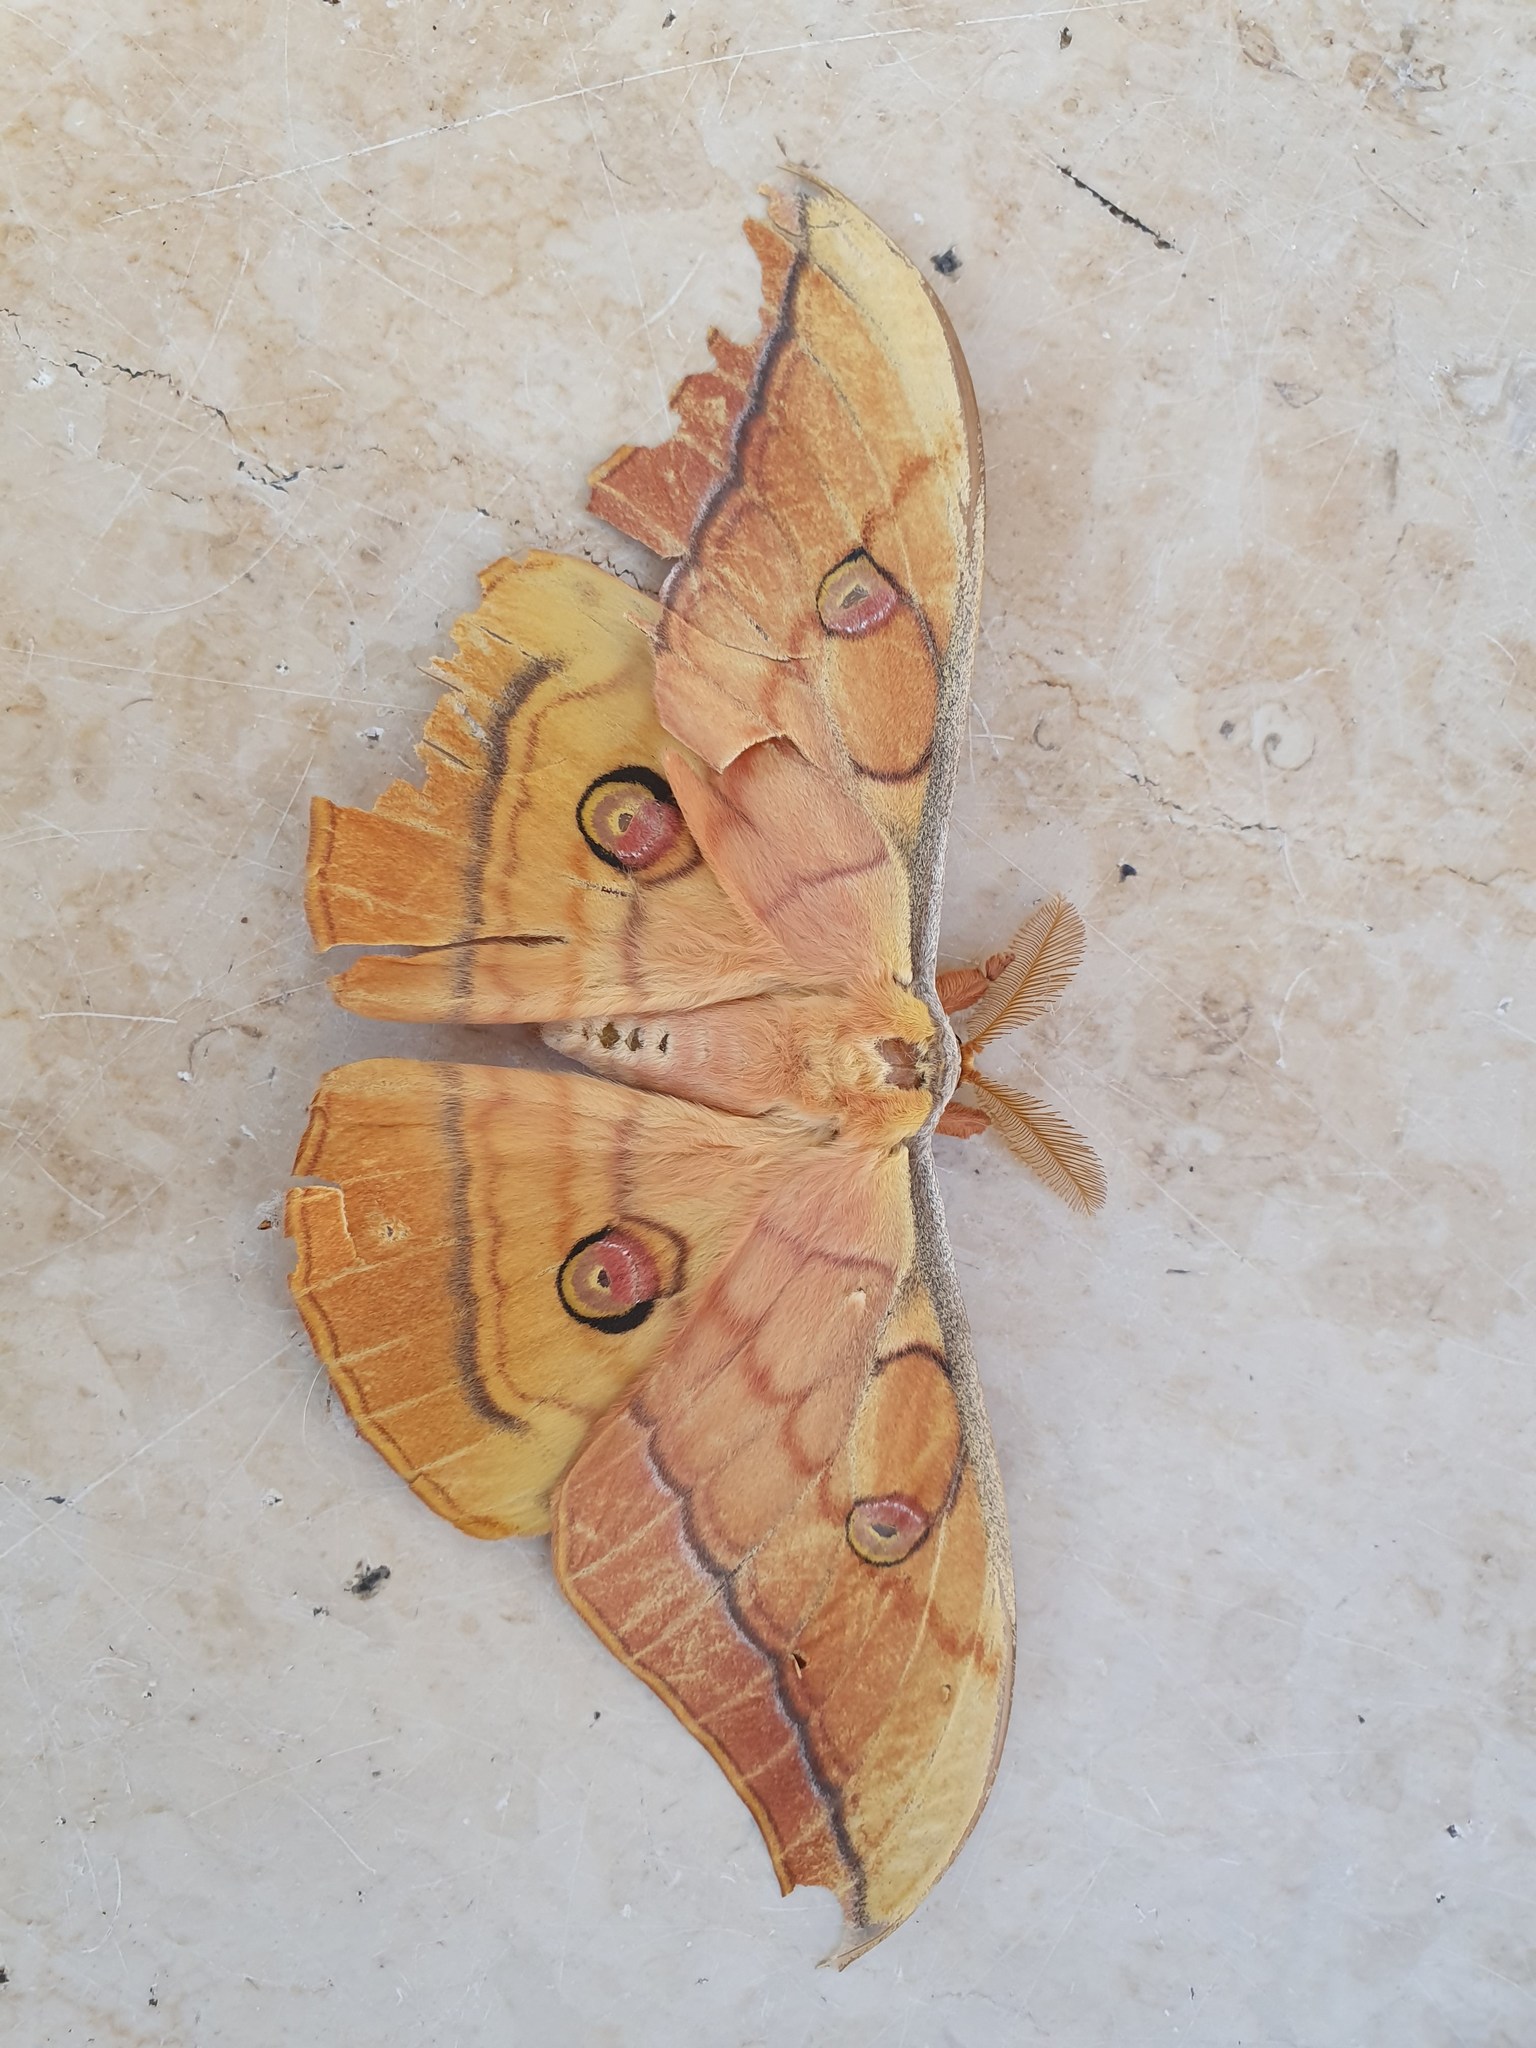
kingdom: Animalia
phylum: Arthropoda
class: Insecta
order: Lepidoptera
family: Saturniidae
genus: Antheraea
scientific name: Antheraea yamamai
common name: Japanese oak silk moth
